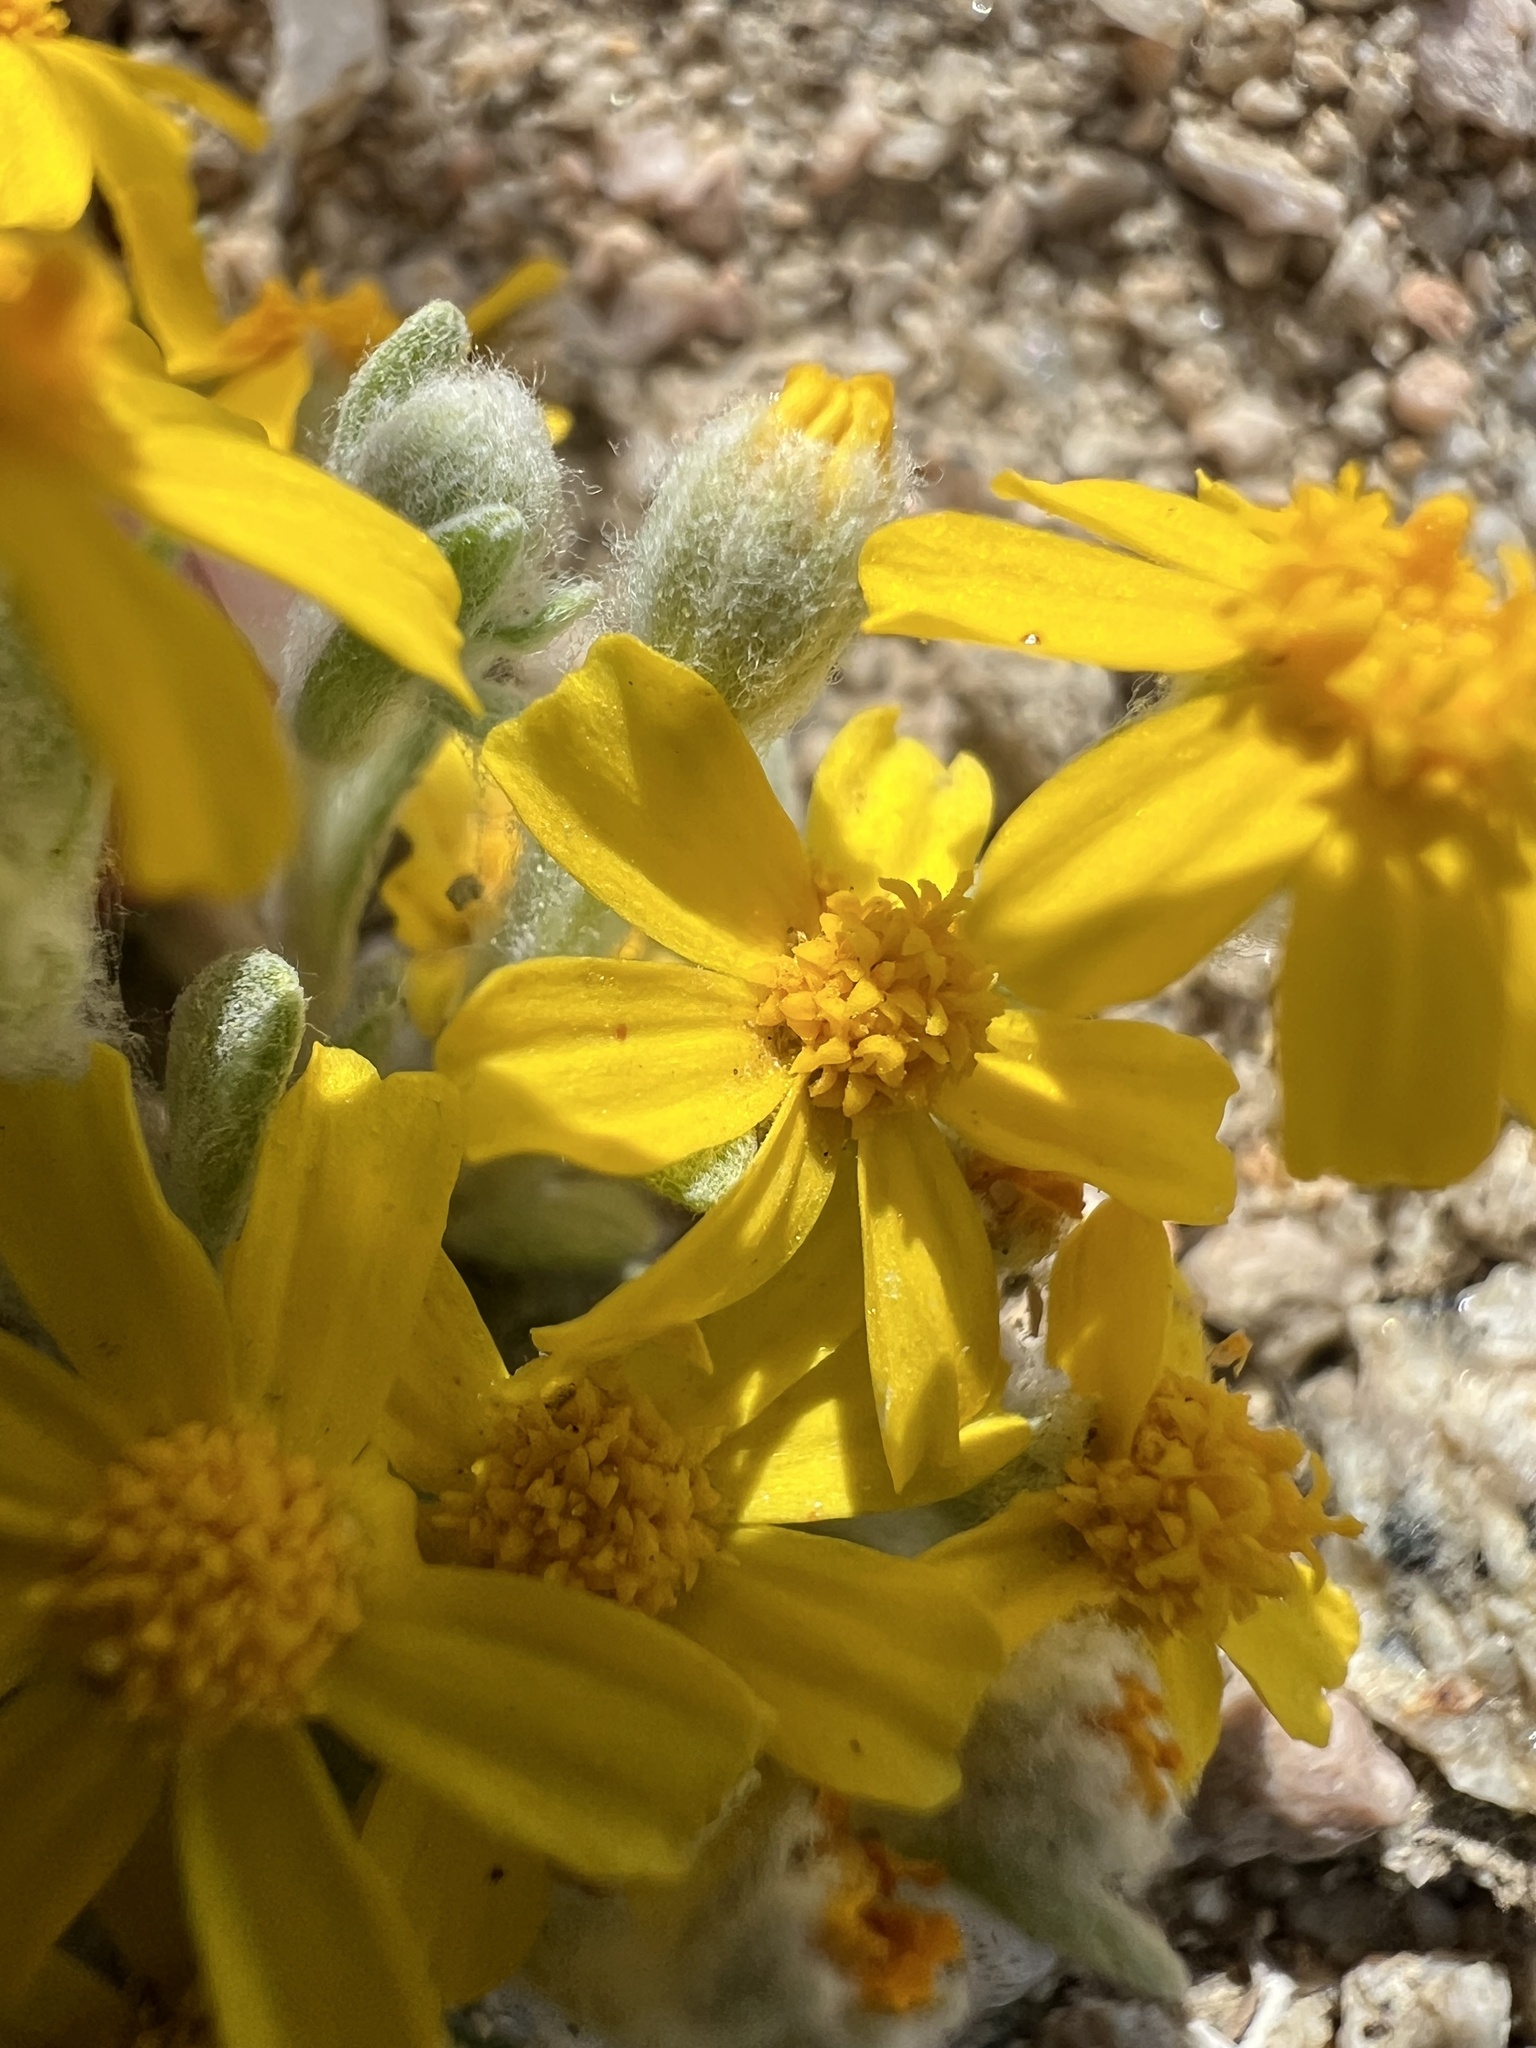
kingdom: Plantae
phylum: Tracheophyta
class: Magnoliopsida
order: Asterales
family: Asteraceae
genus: Eriophyllum
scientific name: Eriophyllum wallacei
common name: Wallace's woolly daisy
